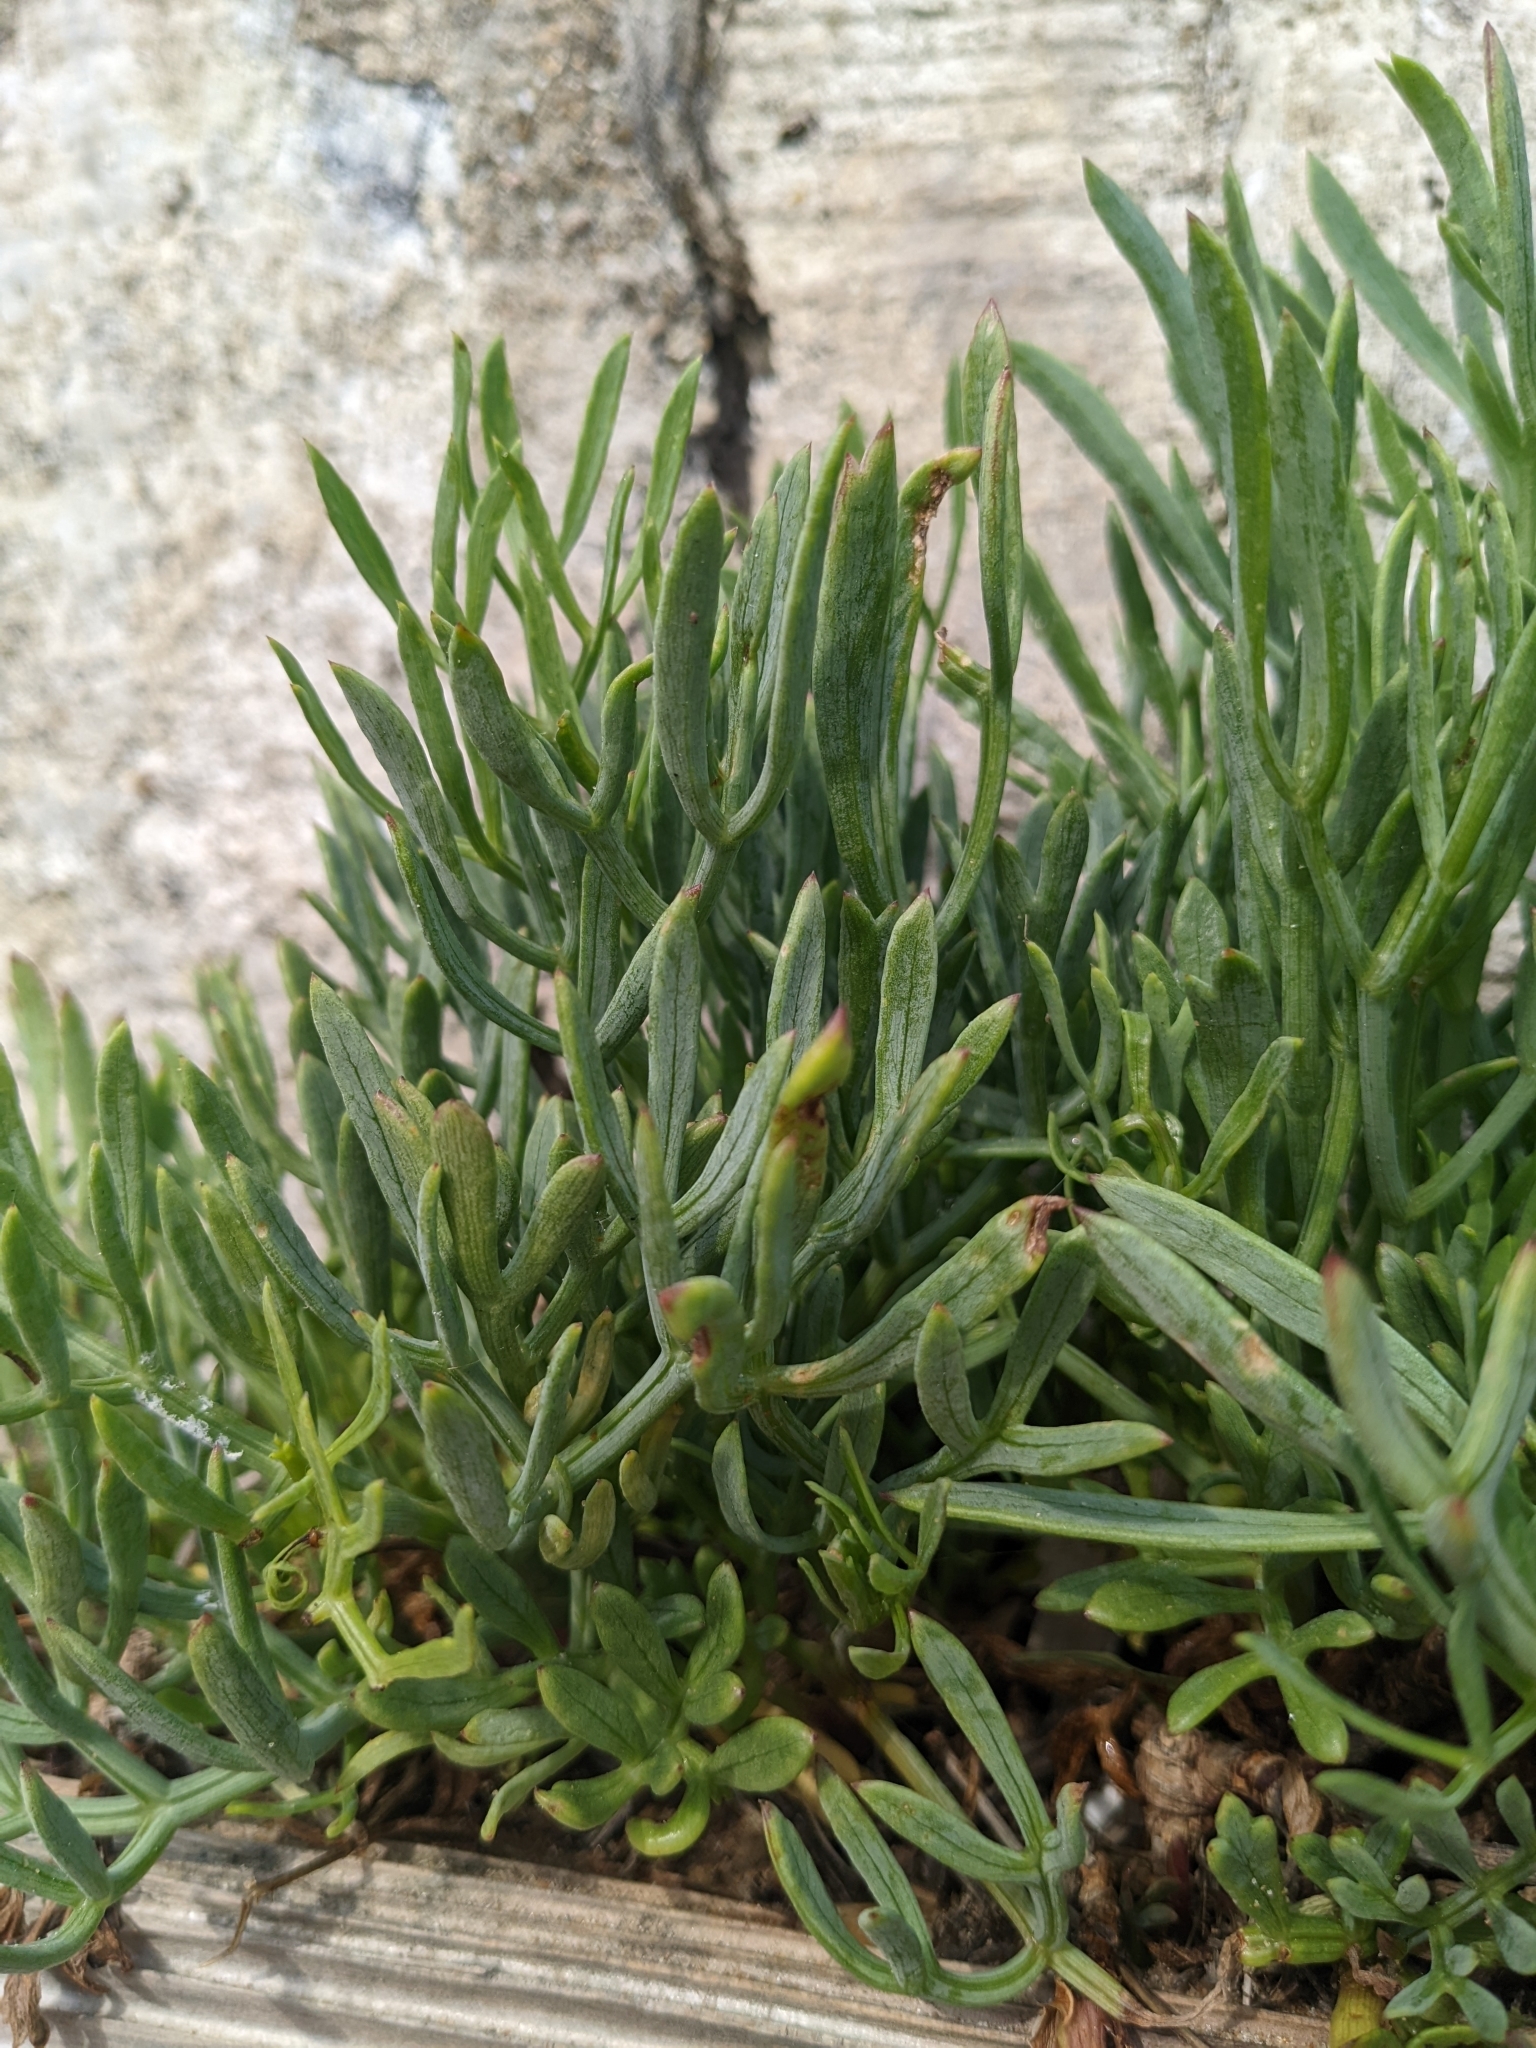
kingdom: Plantae
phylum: Tracheophyta
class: Magnoliopsida
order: Apiales
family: Apiaceae
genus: Crithmum
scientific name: Crithmum maritimum
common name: Rock samphire
